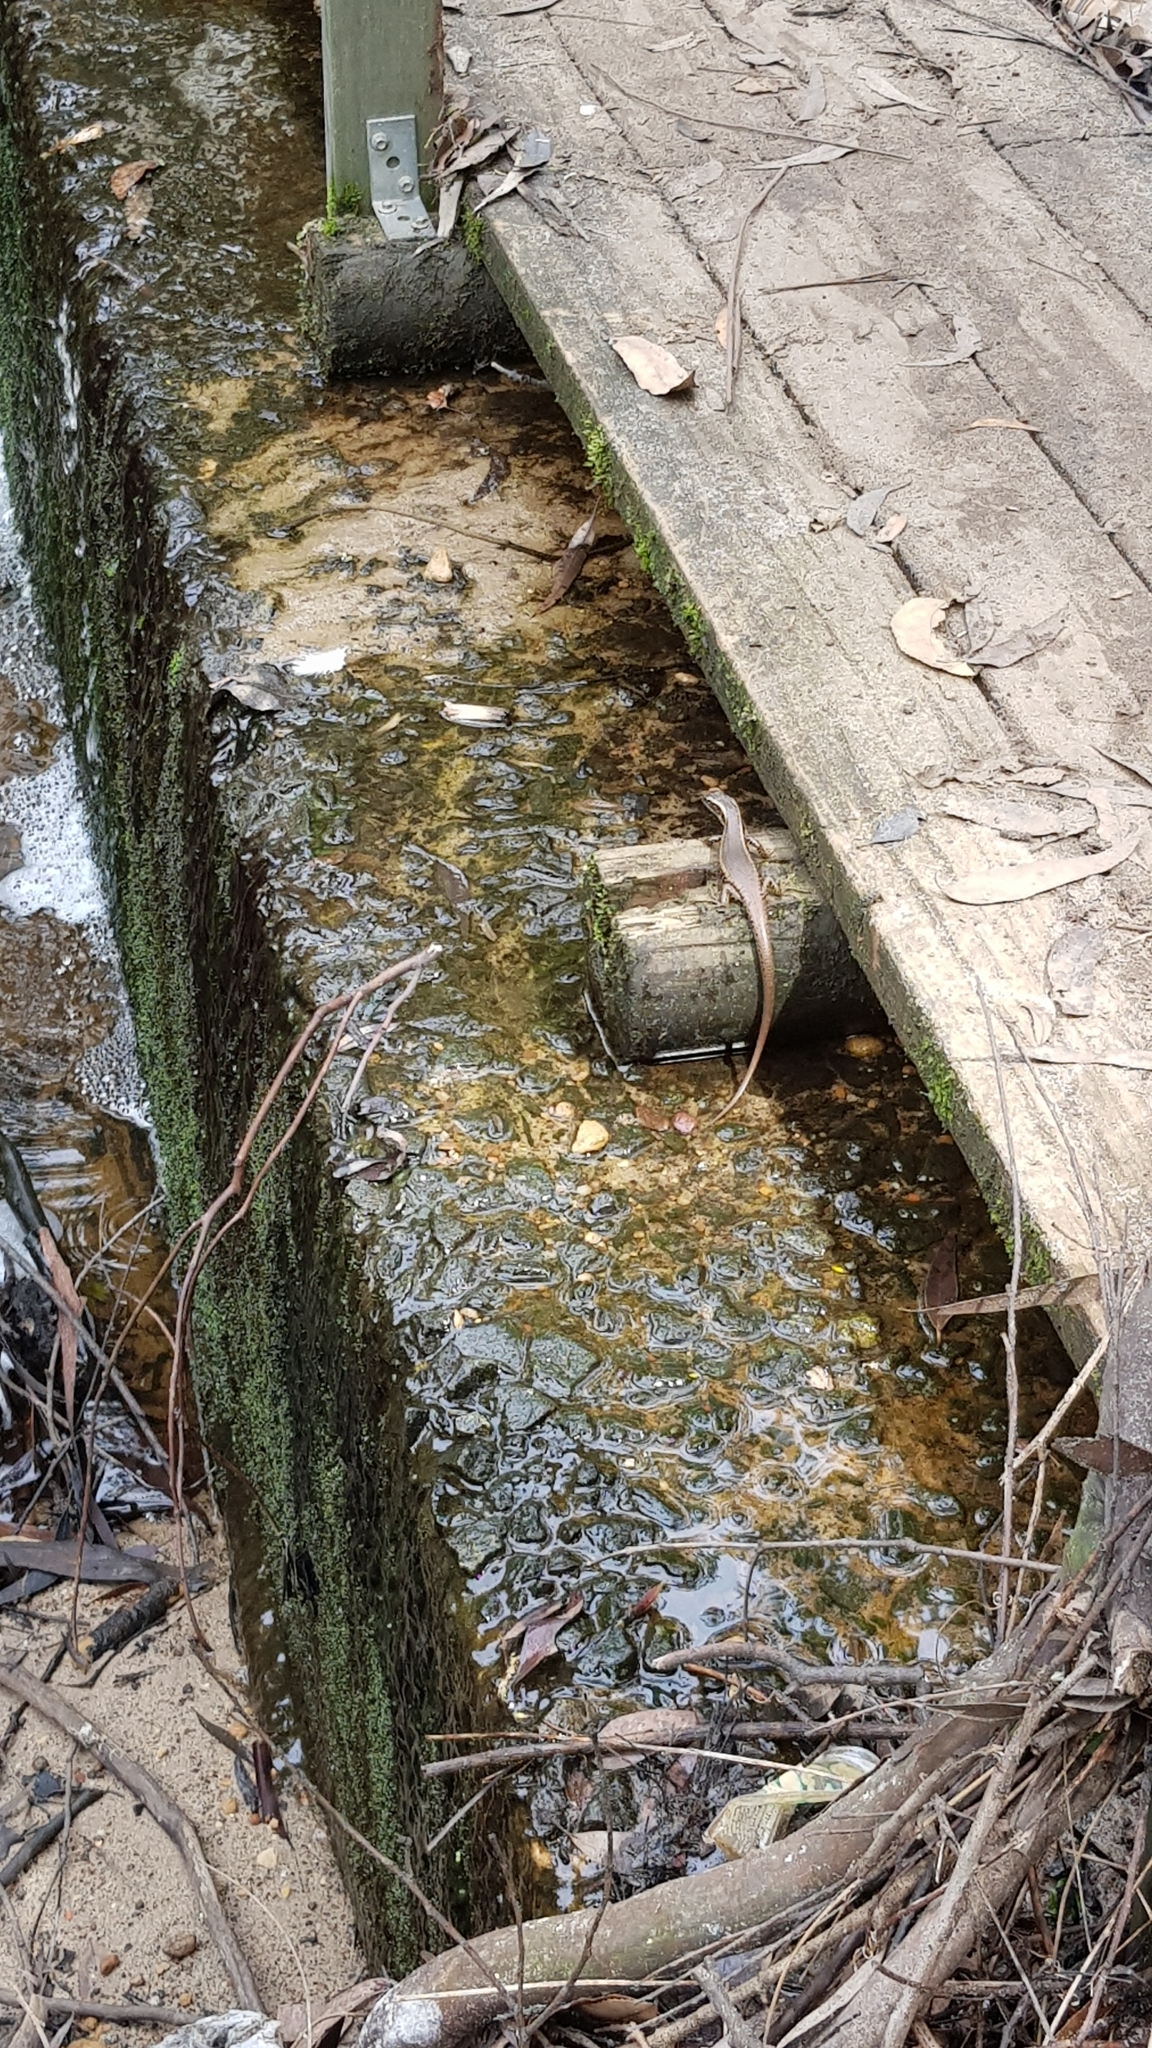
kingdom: Animalia
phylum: Chordata
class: Squamata
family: Scincidae
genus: Eulamprus
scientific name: Eulamprus quoyii
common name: Eastern water skink
